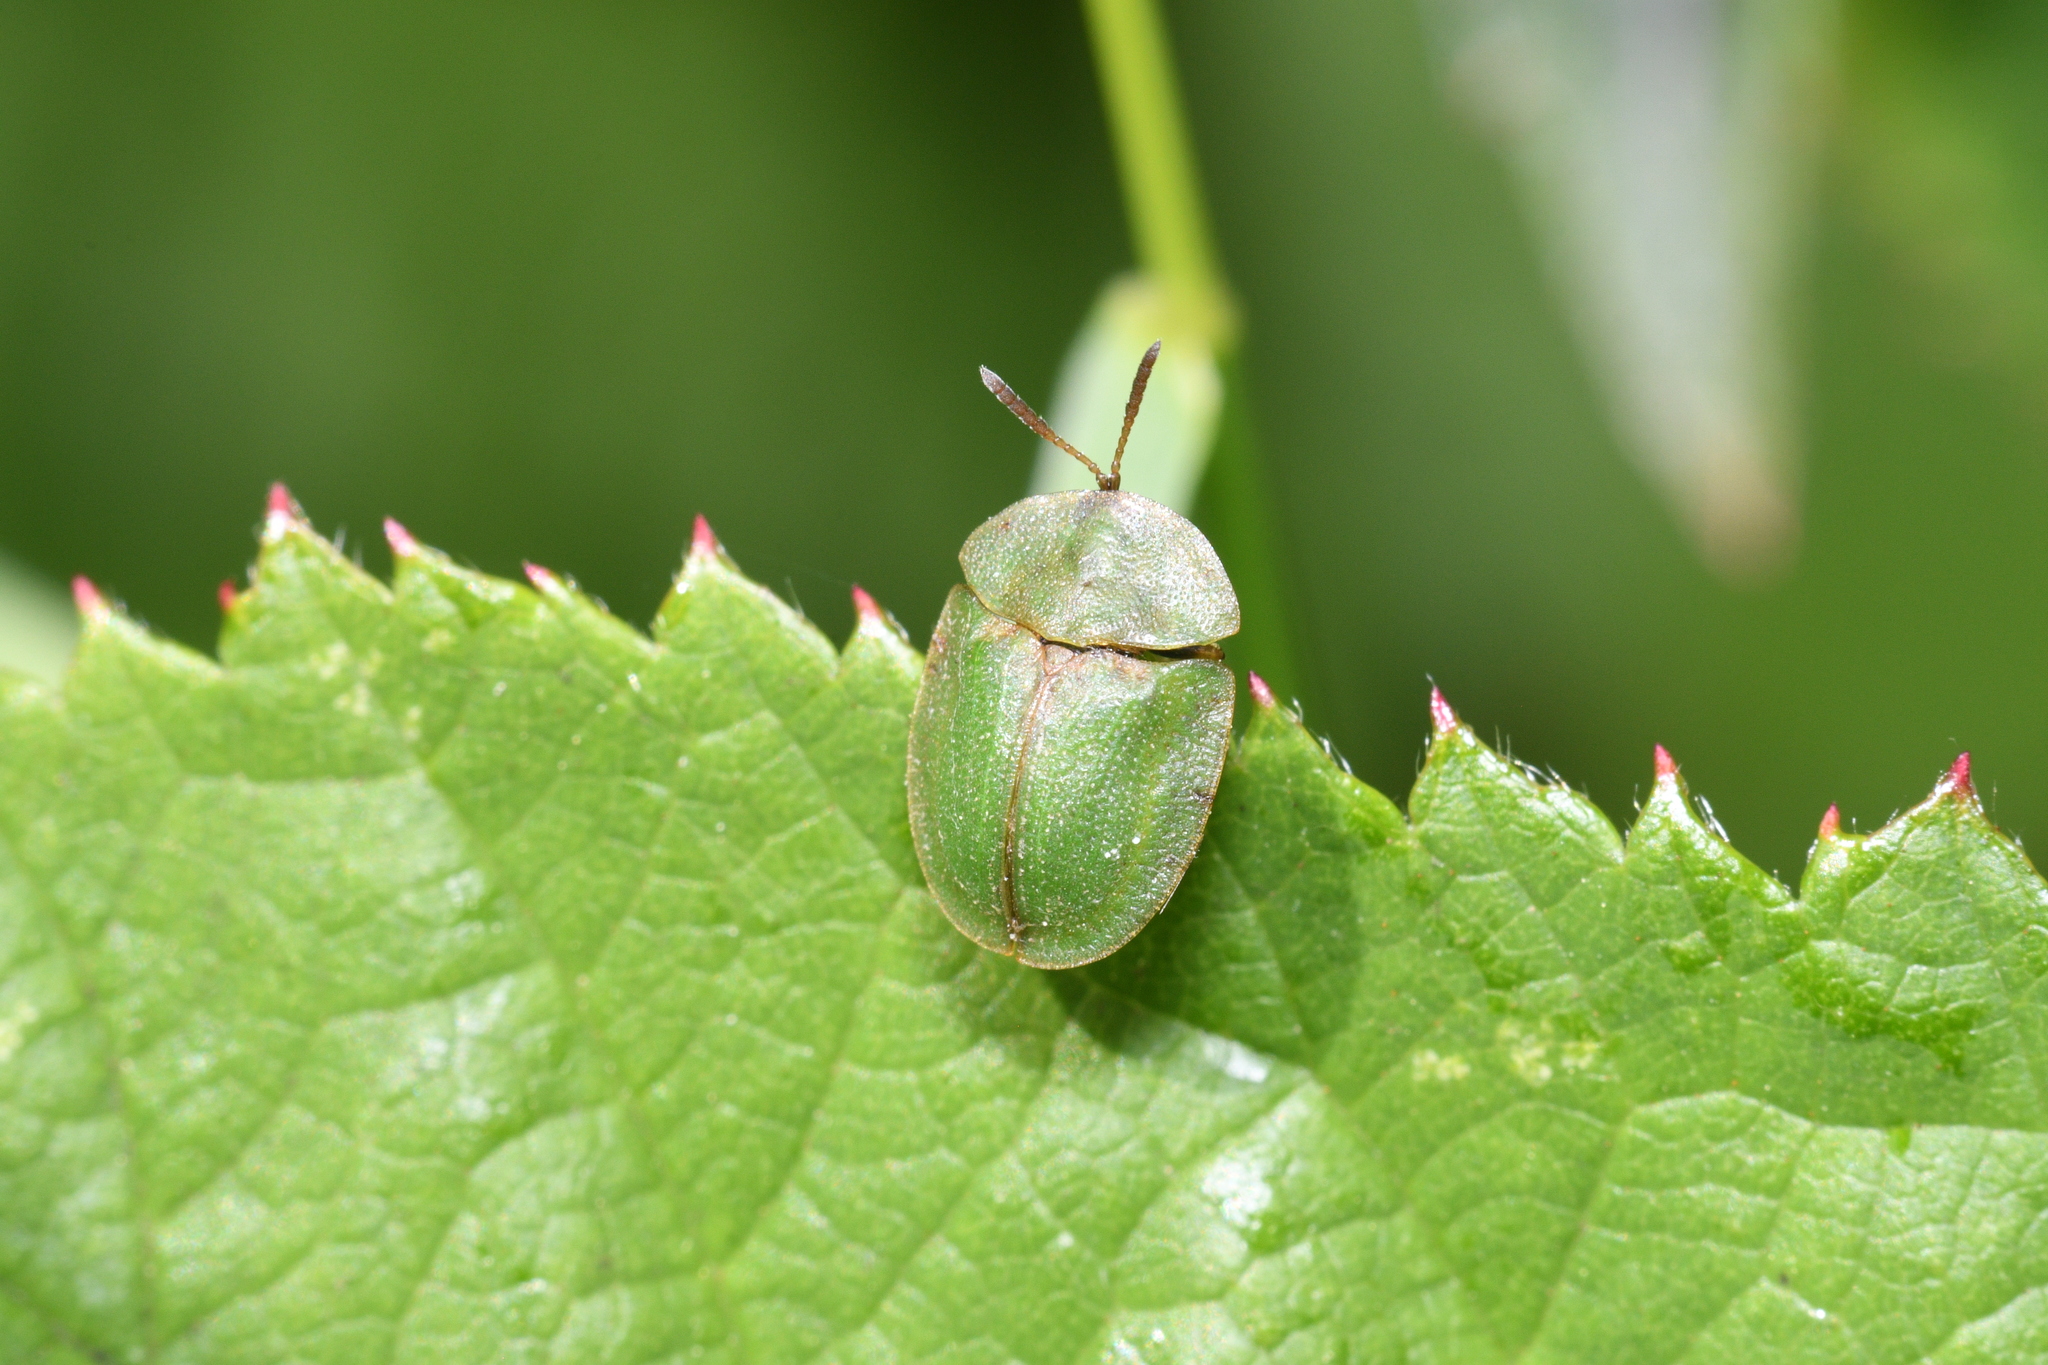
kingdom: Animalia
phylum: Arthropoda
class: Insecta
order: Coleoptera
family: Chrysomelidae
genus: Cassida
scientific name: Cassida rubiginosa
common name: Thistle tortoise beetle
